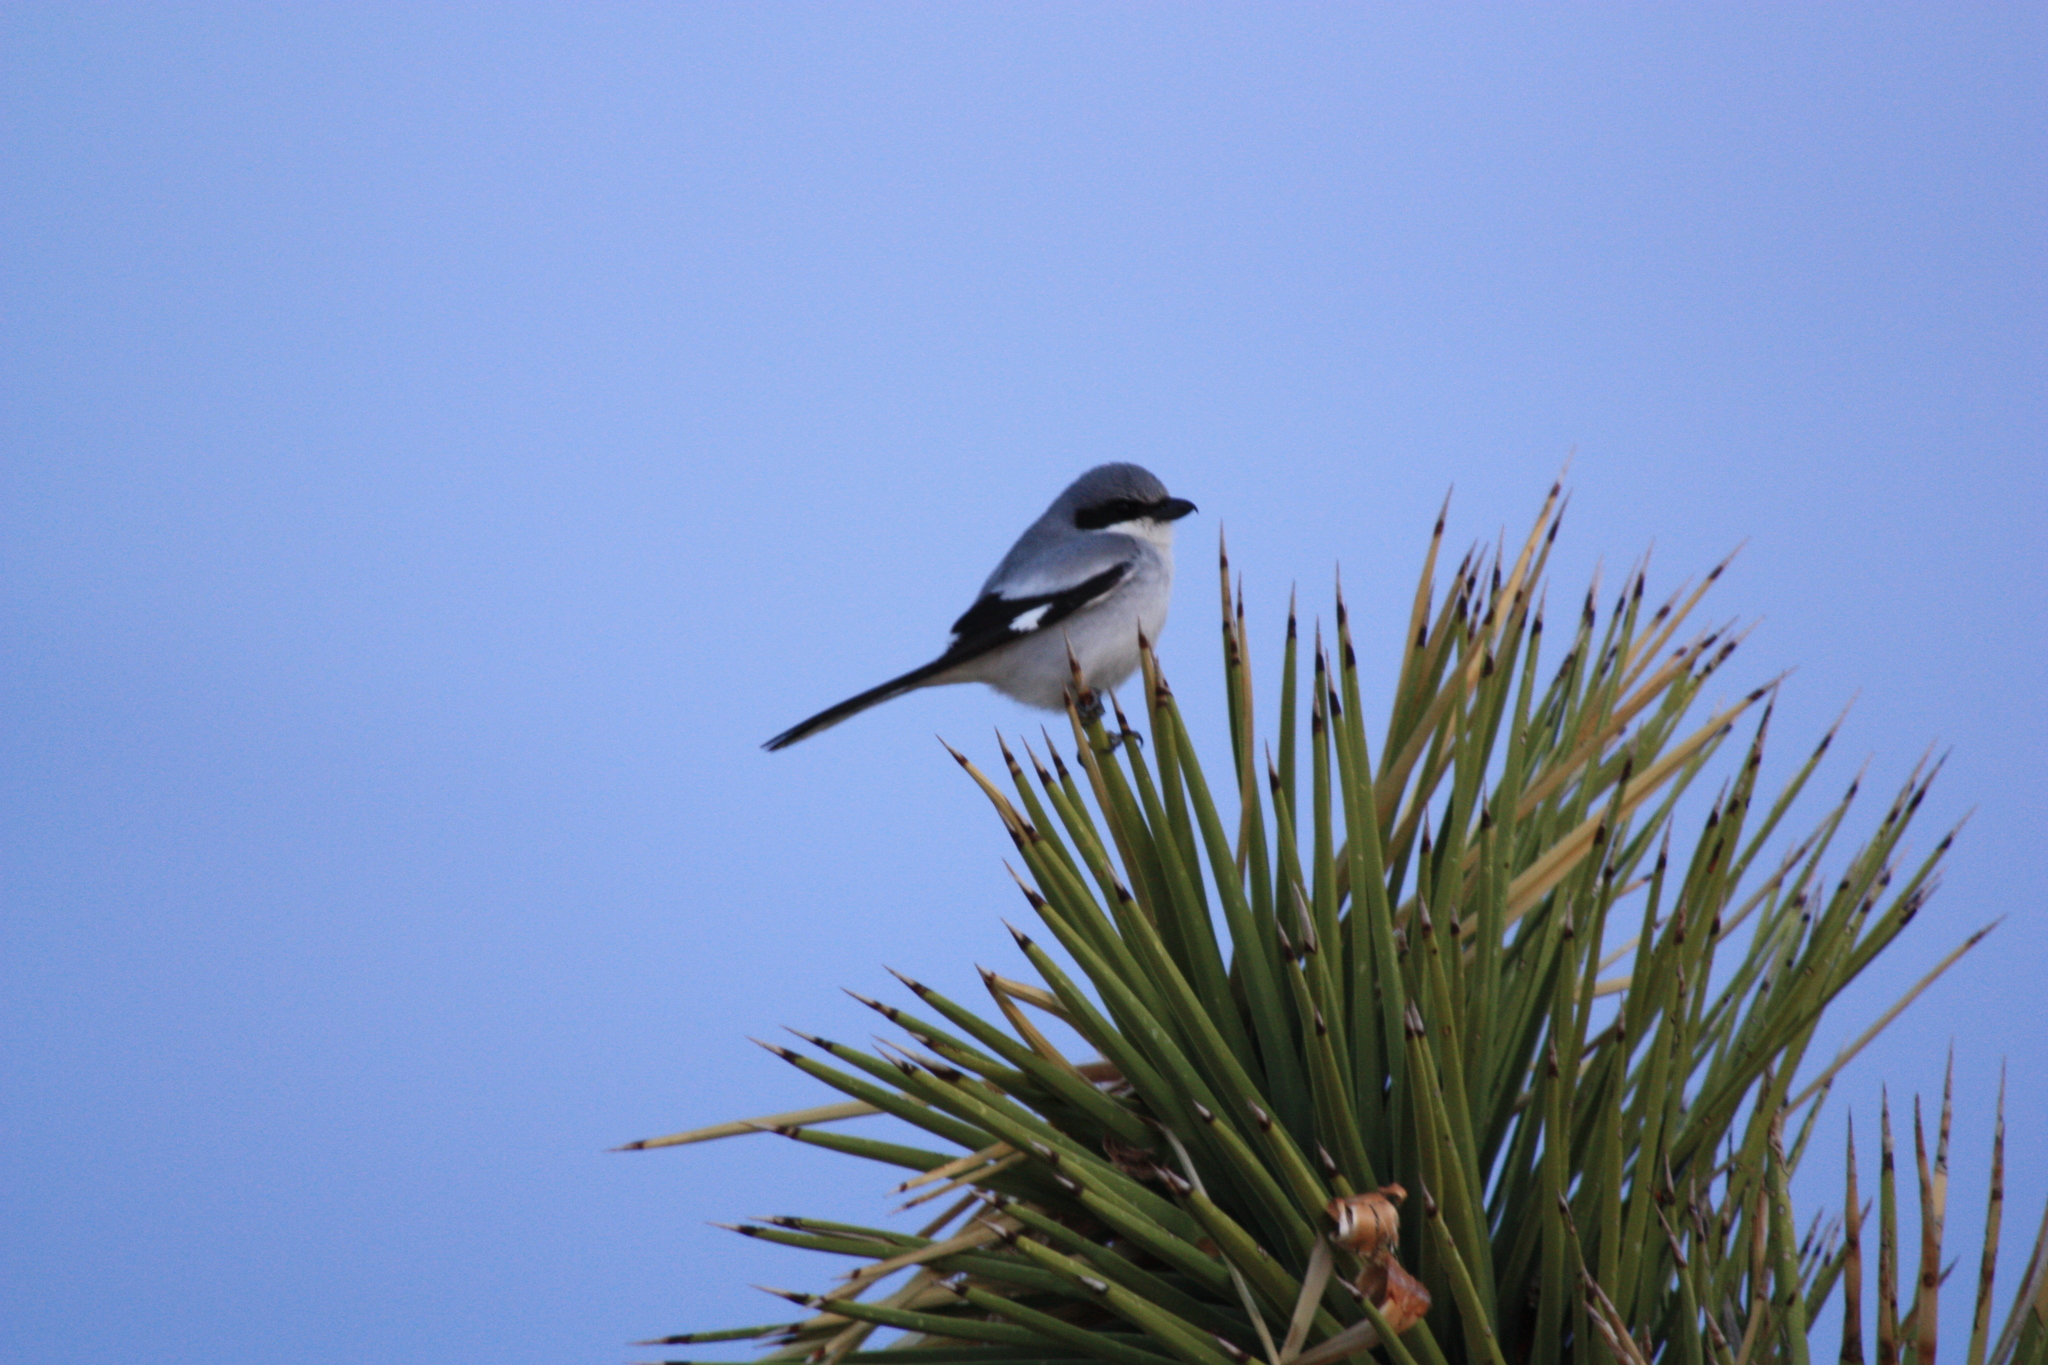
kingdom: Animalia
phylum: Chordata
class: Aves
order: Passeriformes
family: Laniidae
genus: Lanius
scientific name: Lanius ludovicianus
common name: Loggerhead shrike
